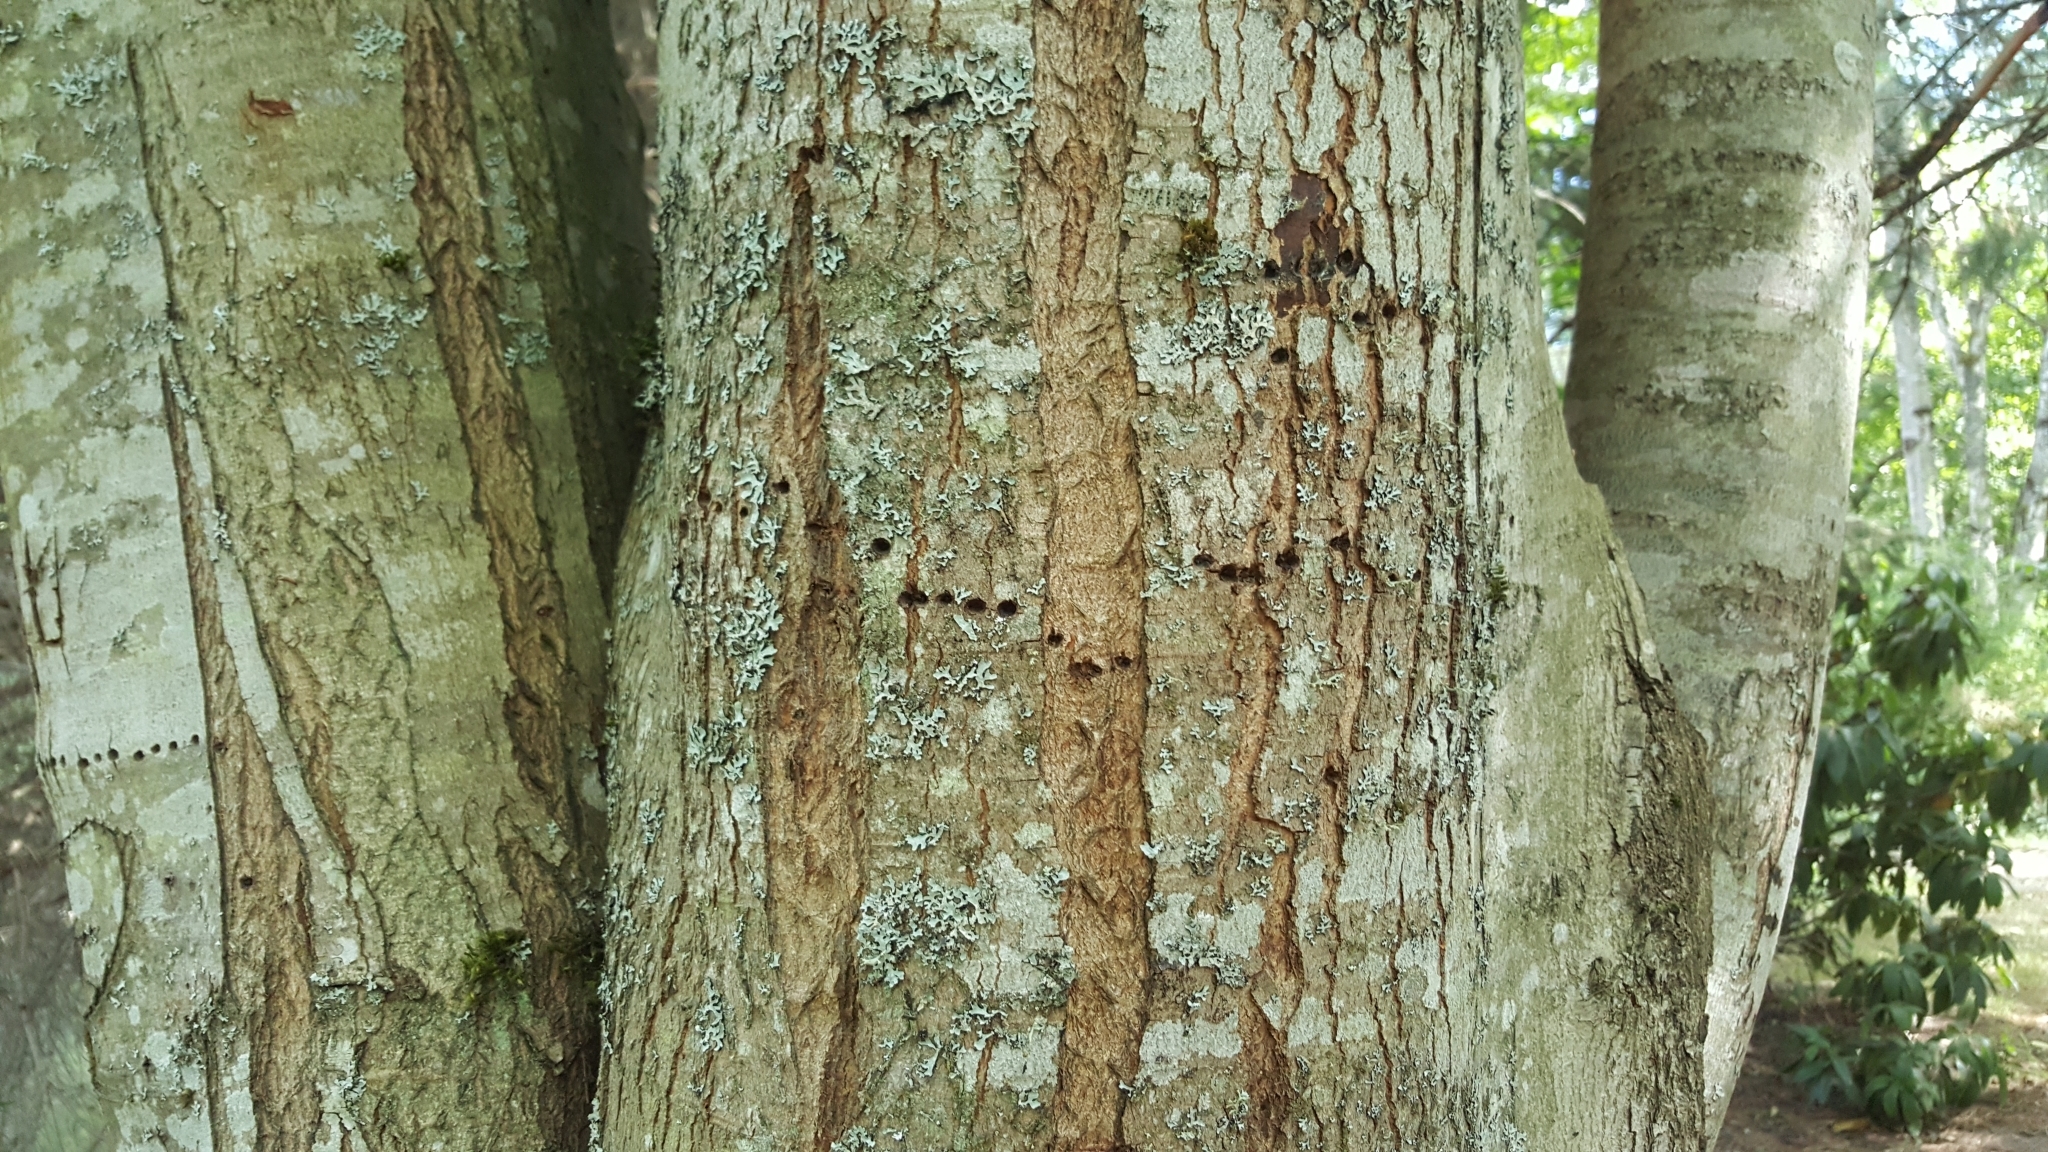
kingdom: Animalia
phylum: Chordata
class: Aves
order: Piciformes
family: Picidae
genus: Sphyrapicus
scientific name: Sphyrapicus
